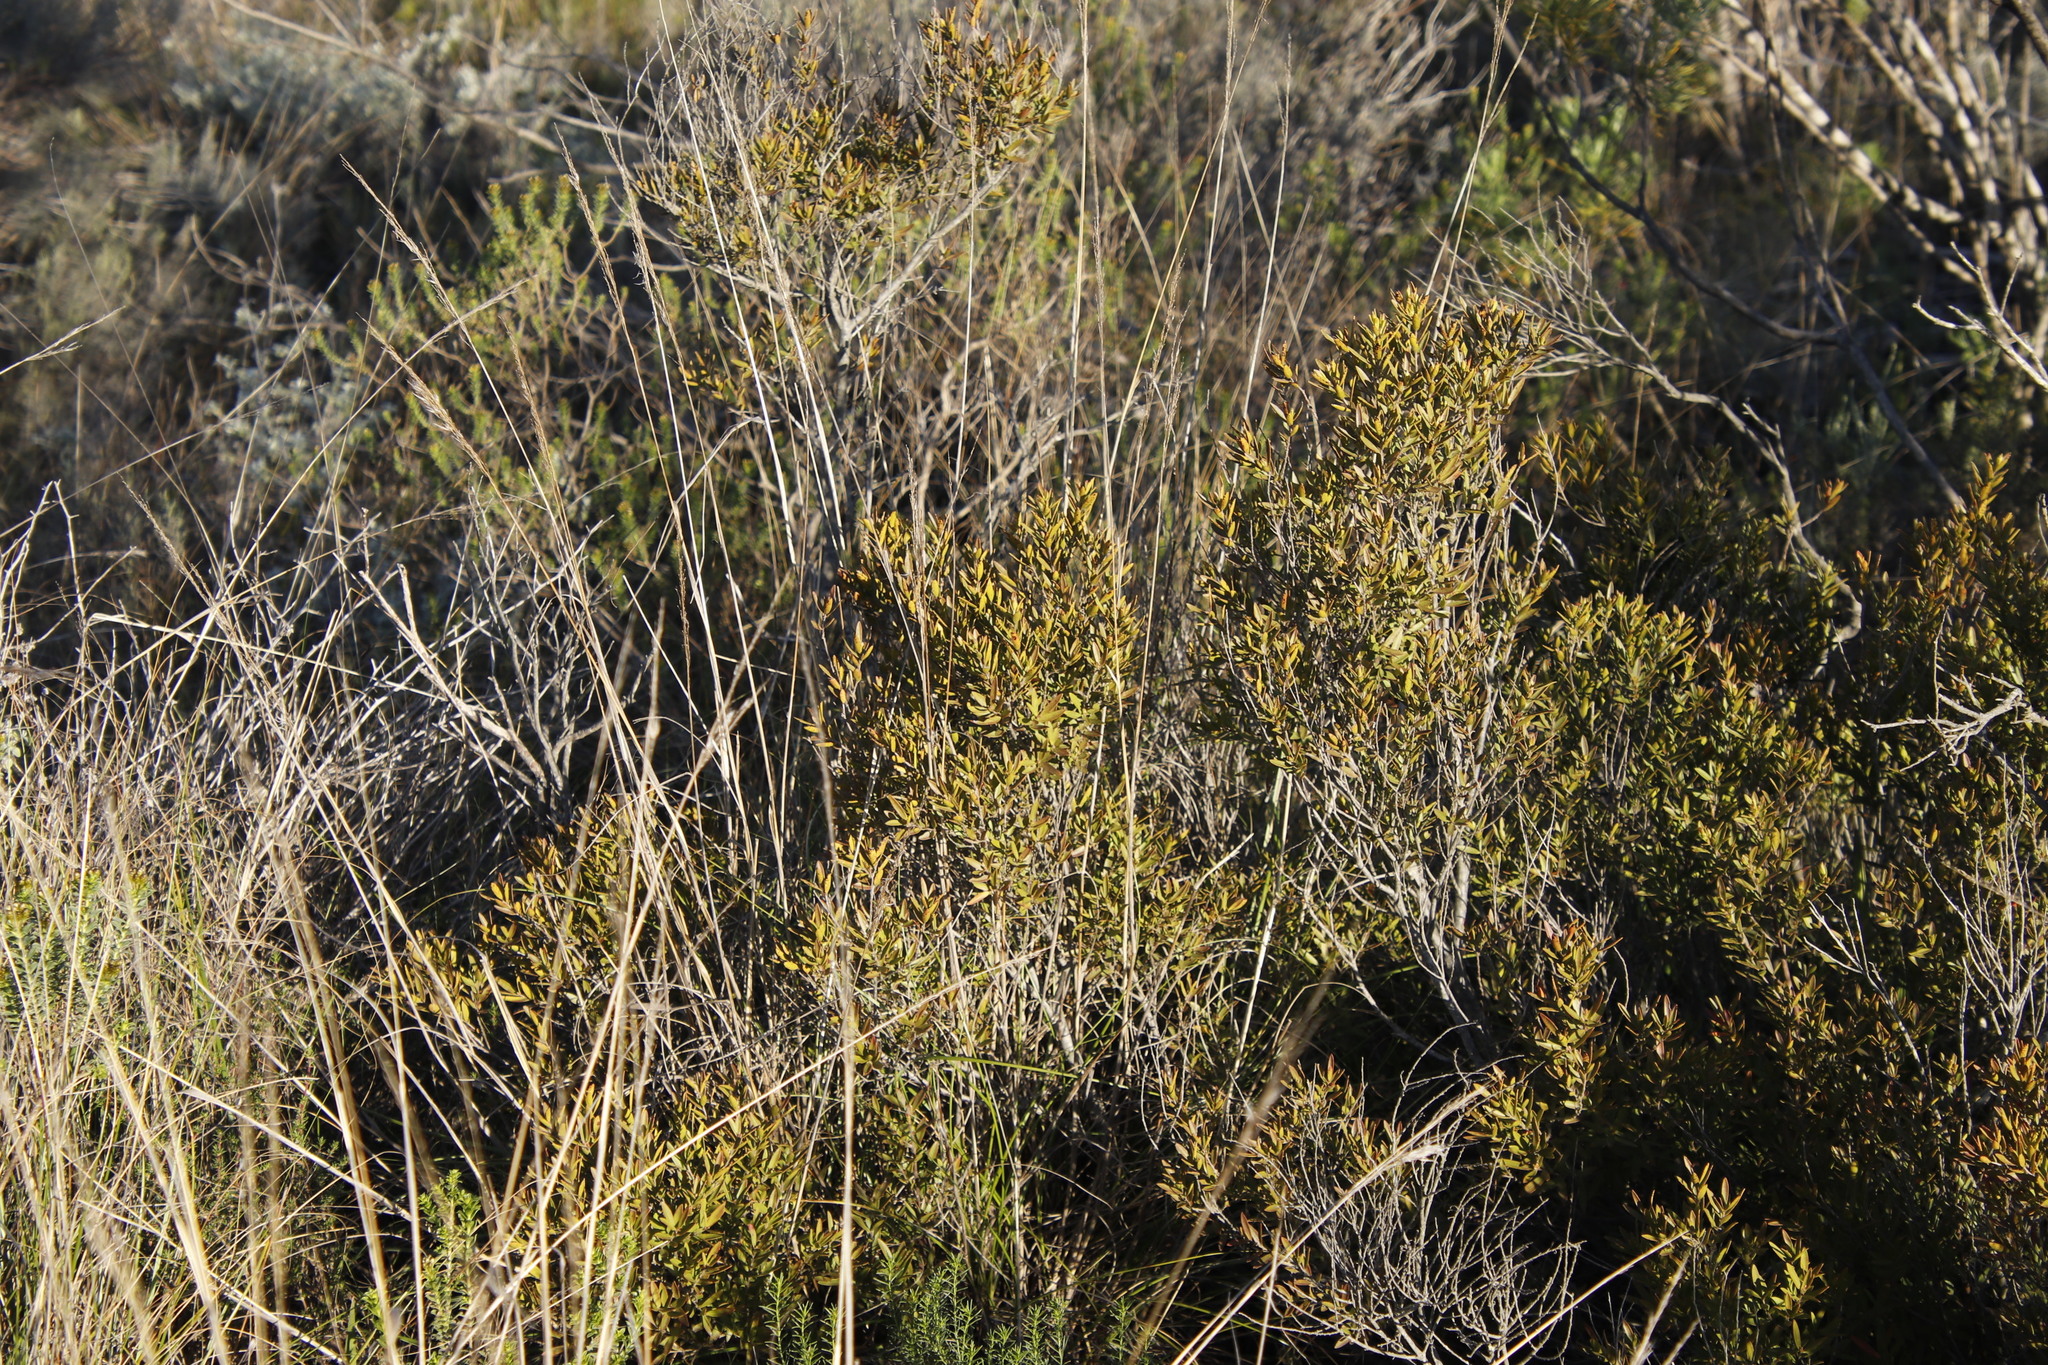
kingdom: Plantae
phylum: Tracheophyta
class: Magnoliopsida
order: Ericales
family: Ebenaceae
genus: Diospyros
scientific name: Diospyros glabra
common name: Fynbos star apple
